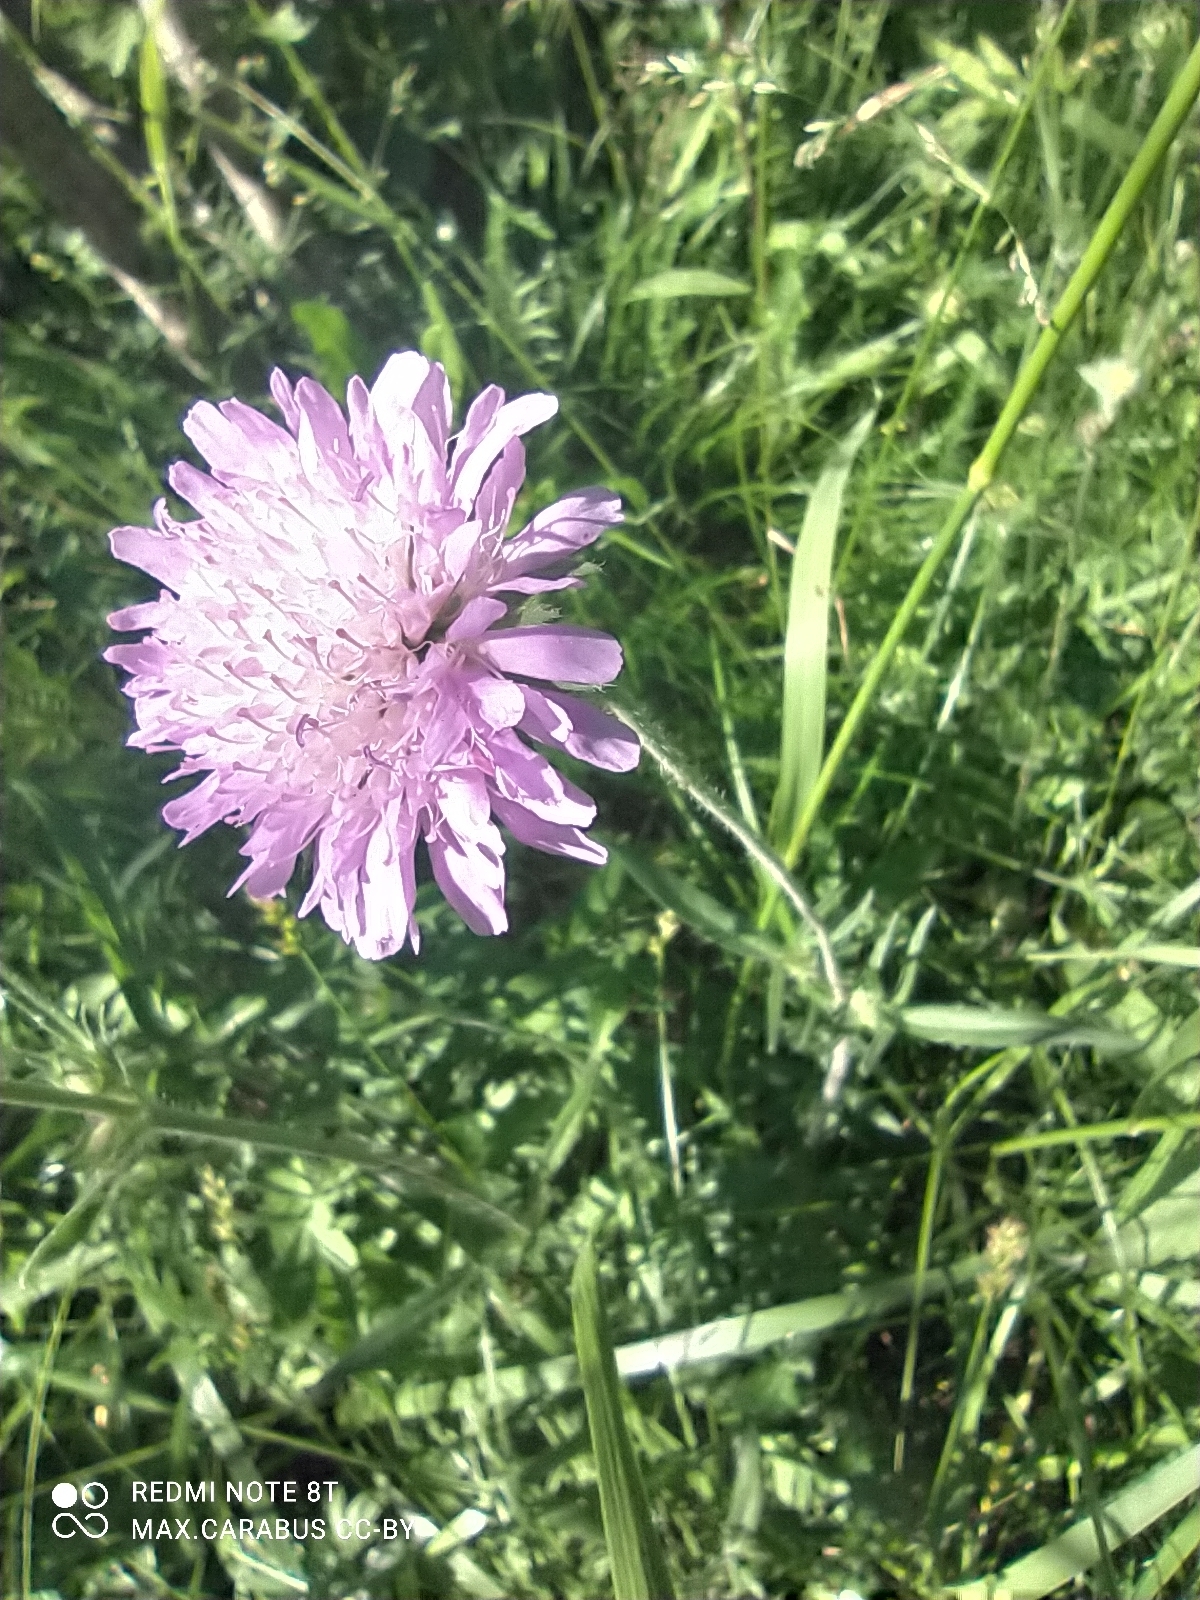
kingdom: Plantae
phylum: Tracheophyta
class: Magnoliopsida
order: Dipsacales
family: Caprifoliaceae
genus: Knautia
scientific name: Knautia arvensis
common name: Field scabiosa
